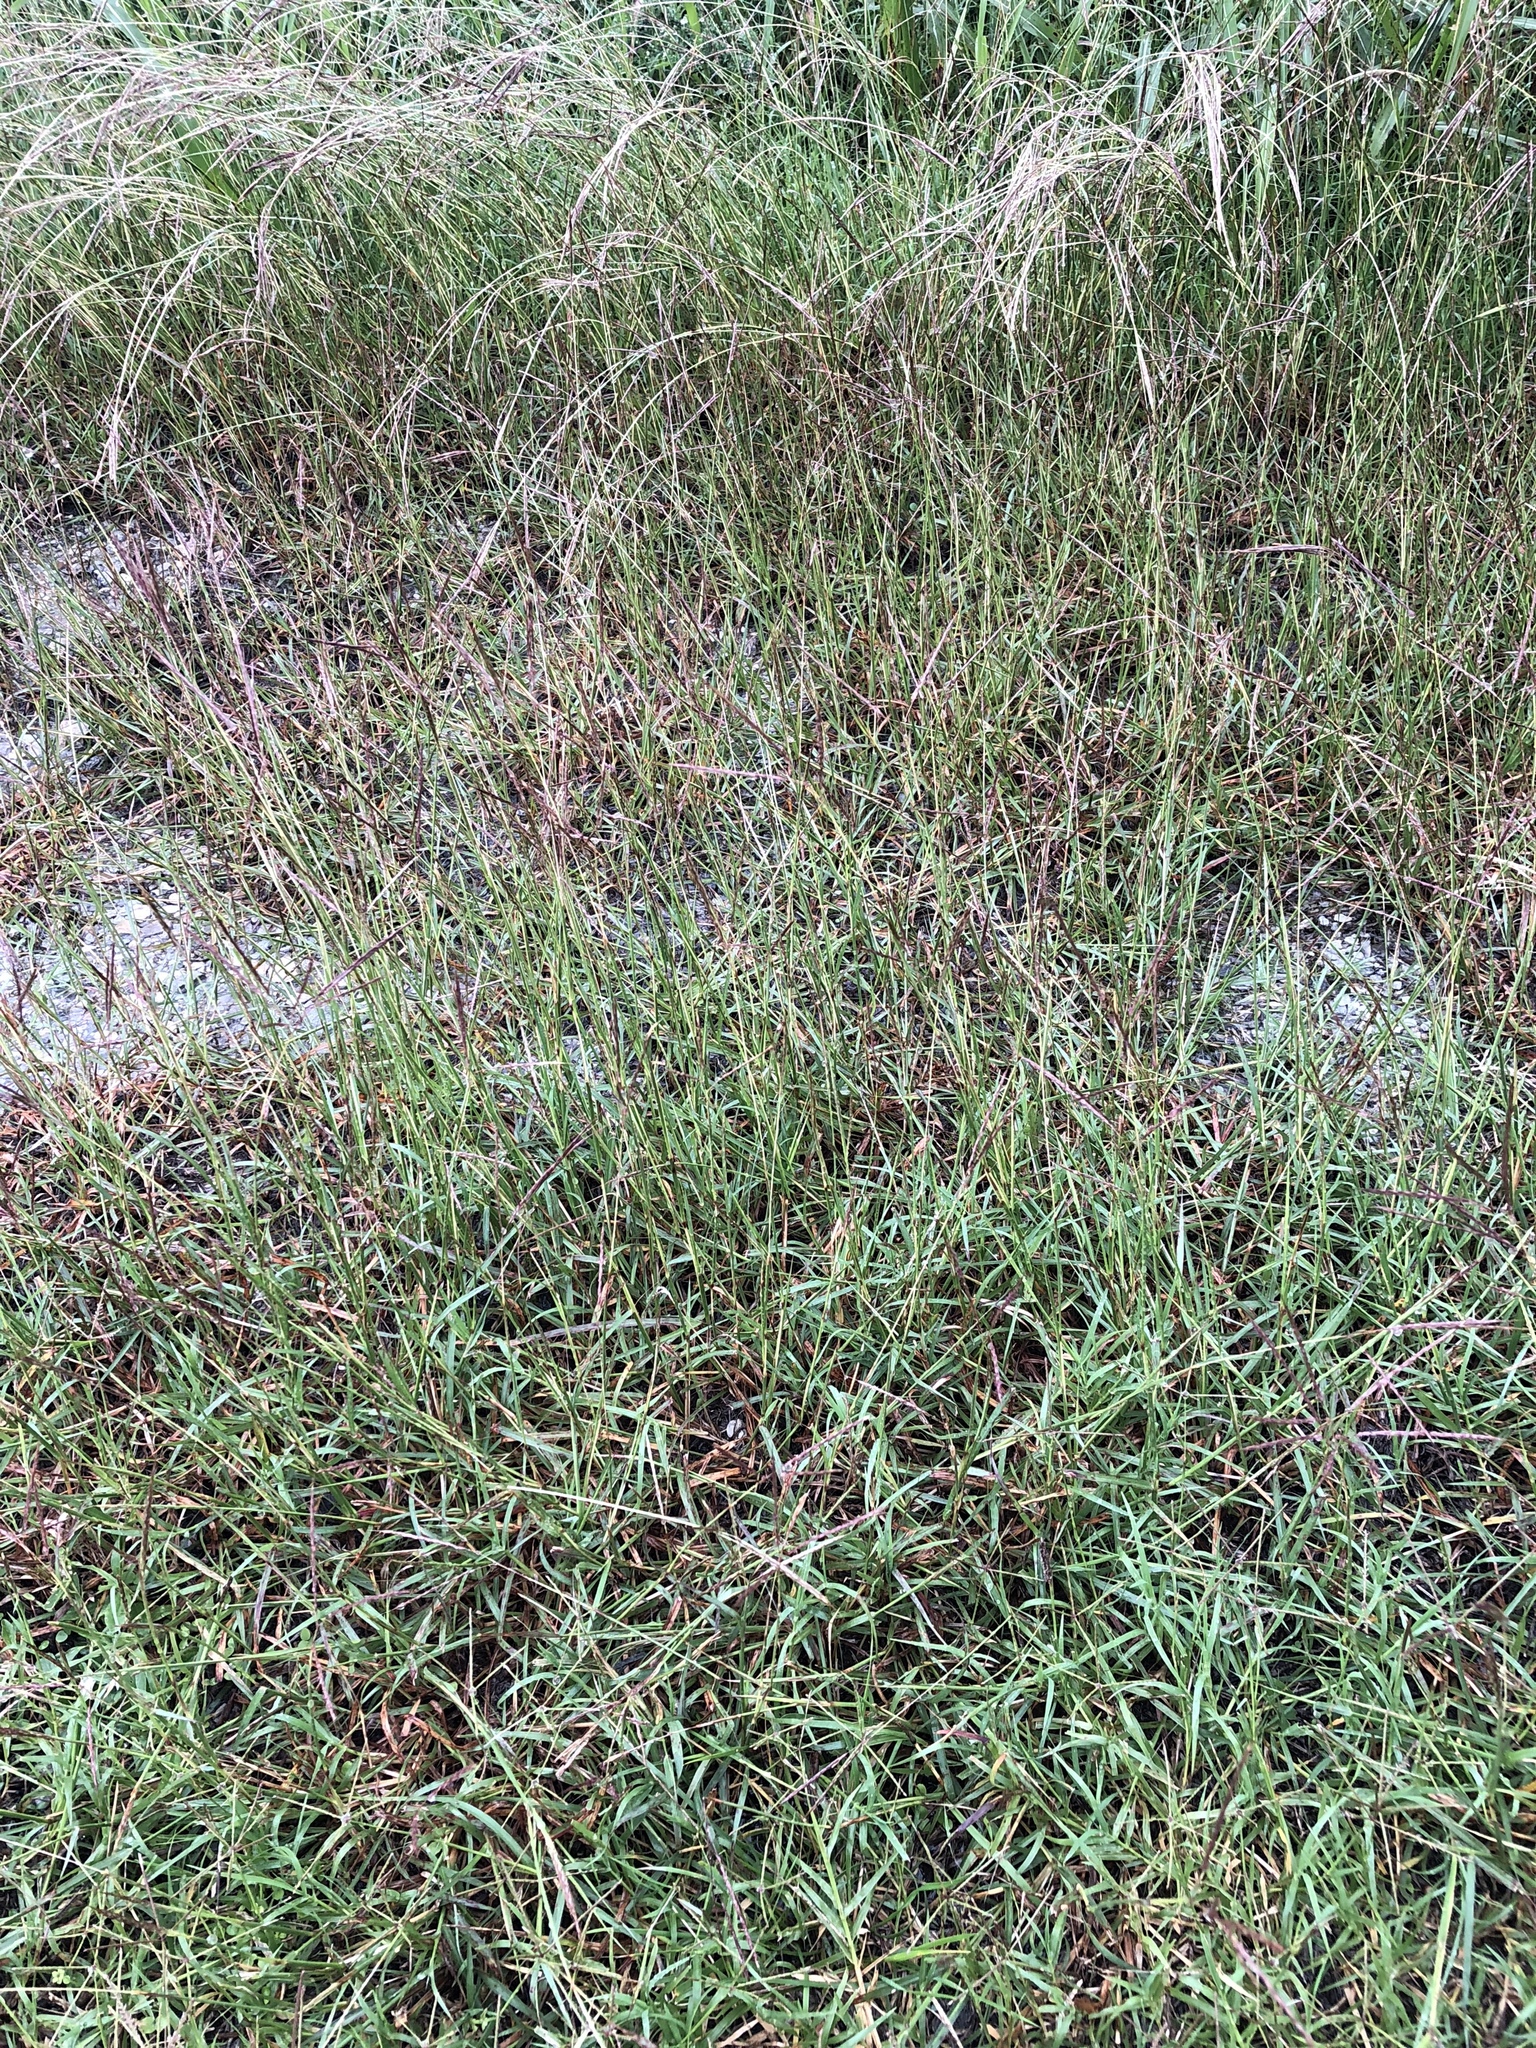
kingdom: Plantae
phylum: Tracheophyta
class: Liliopsida
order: Poales
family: Poaceae
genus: Bothriochloa
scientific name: Bothriochloa ischaemum
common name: Yellow bluestem
